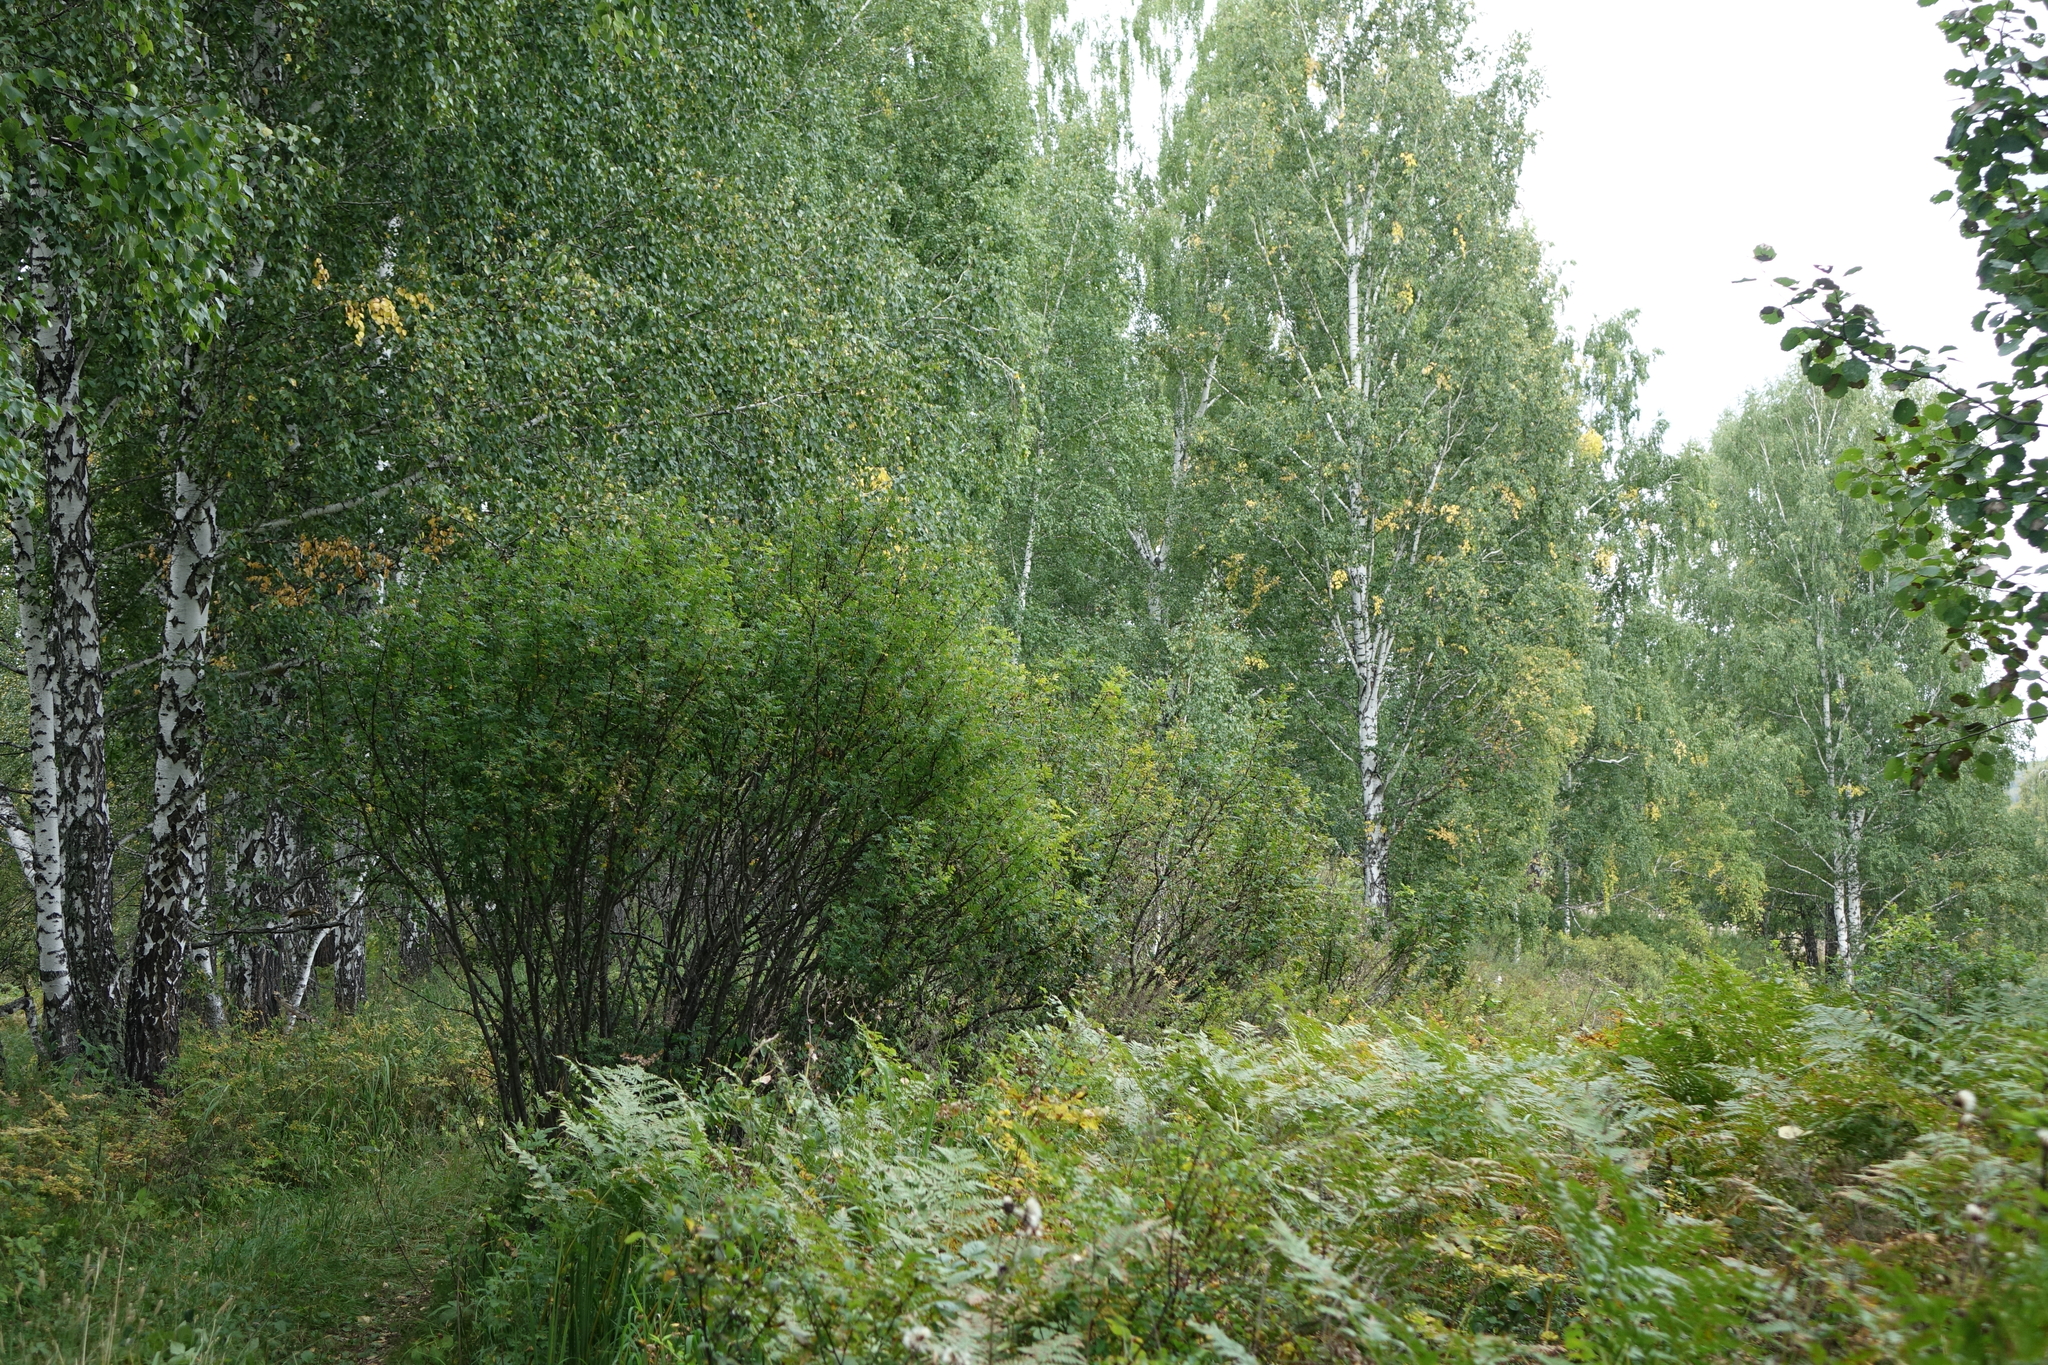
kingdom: Plantae
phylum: Tracheophyta
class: Magnoliopsida
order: Fabales
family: Fabaceae
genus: Caragana
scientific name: Caragana arborescens
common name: Siberian peashrub
